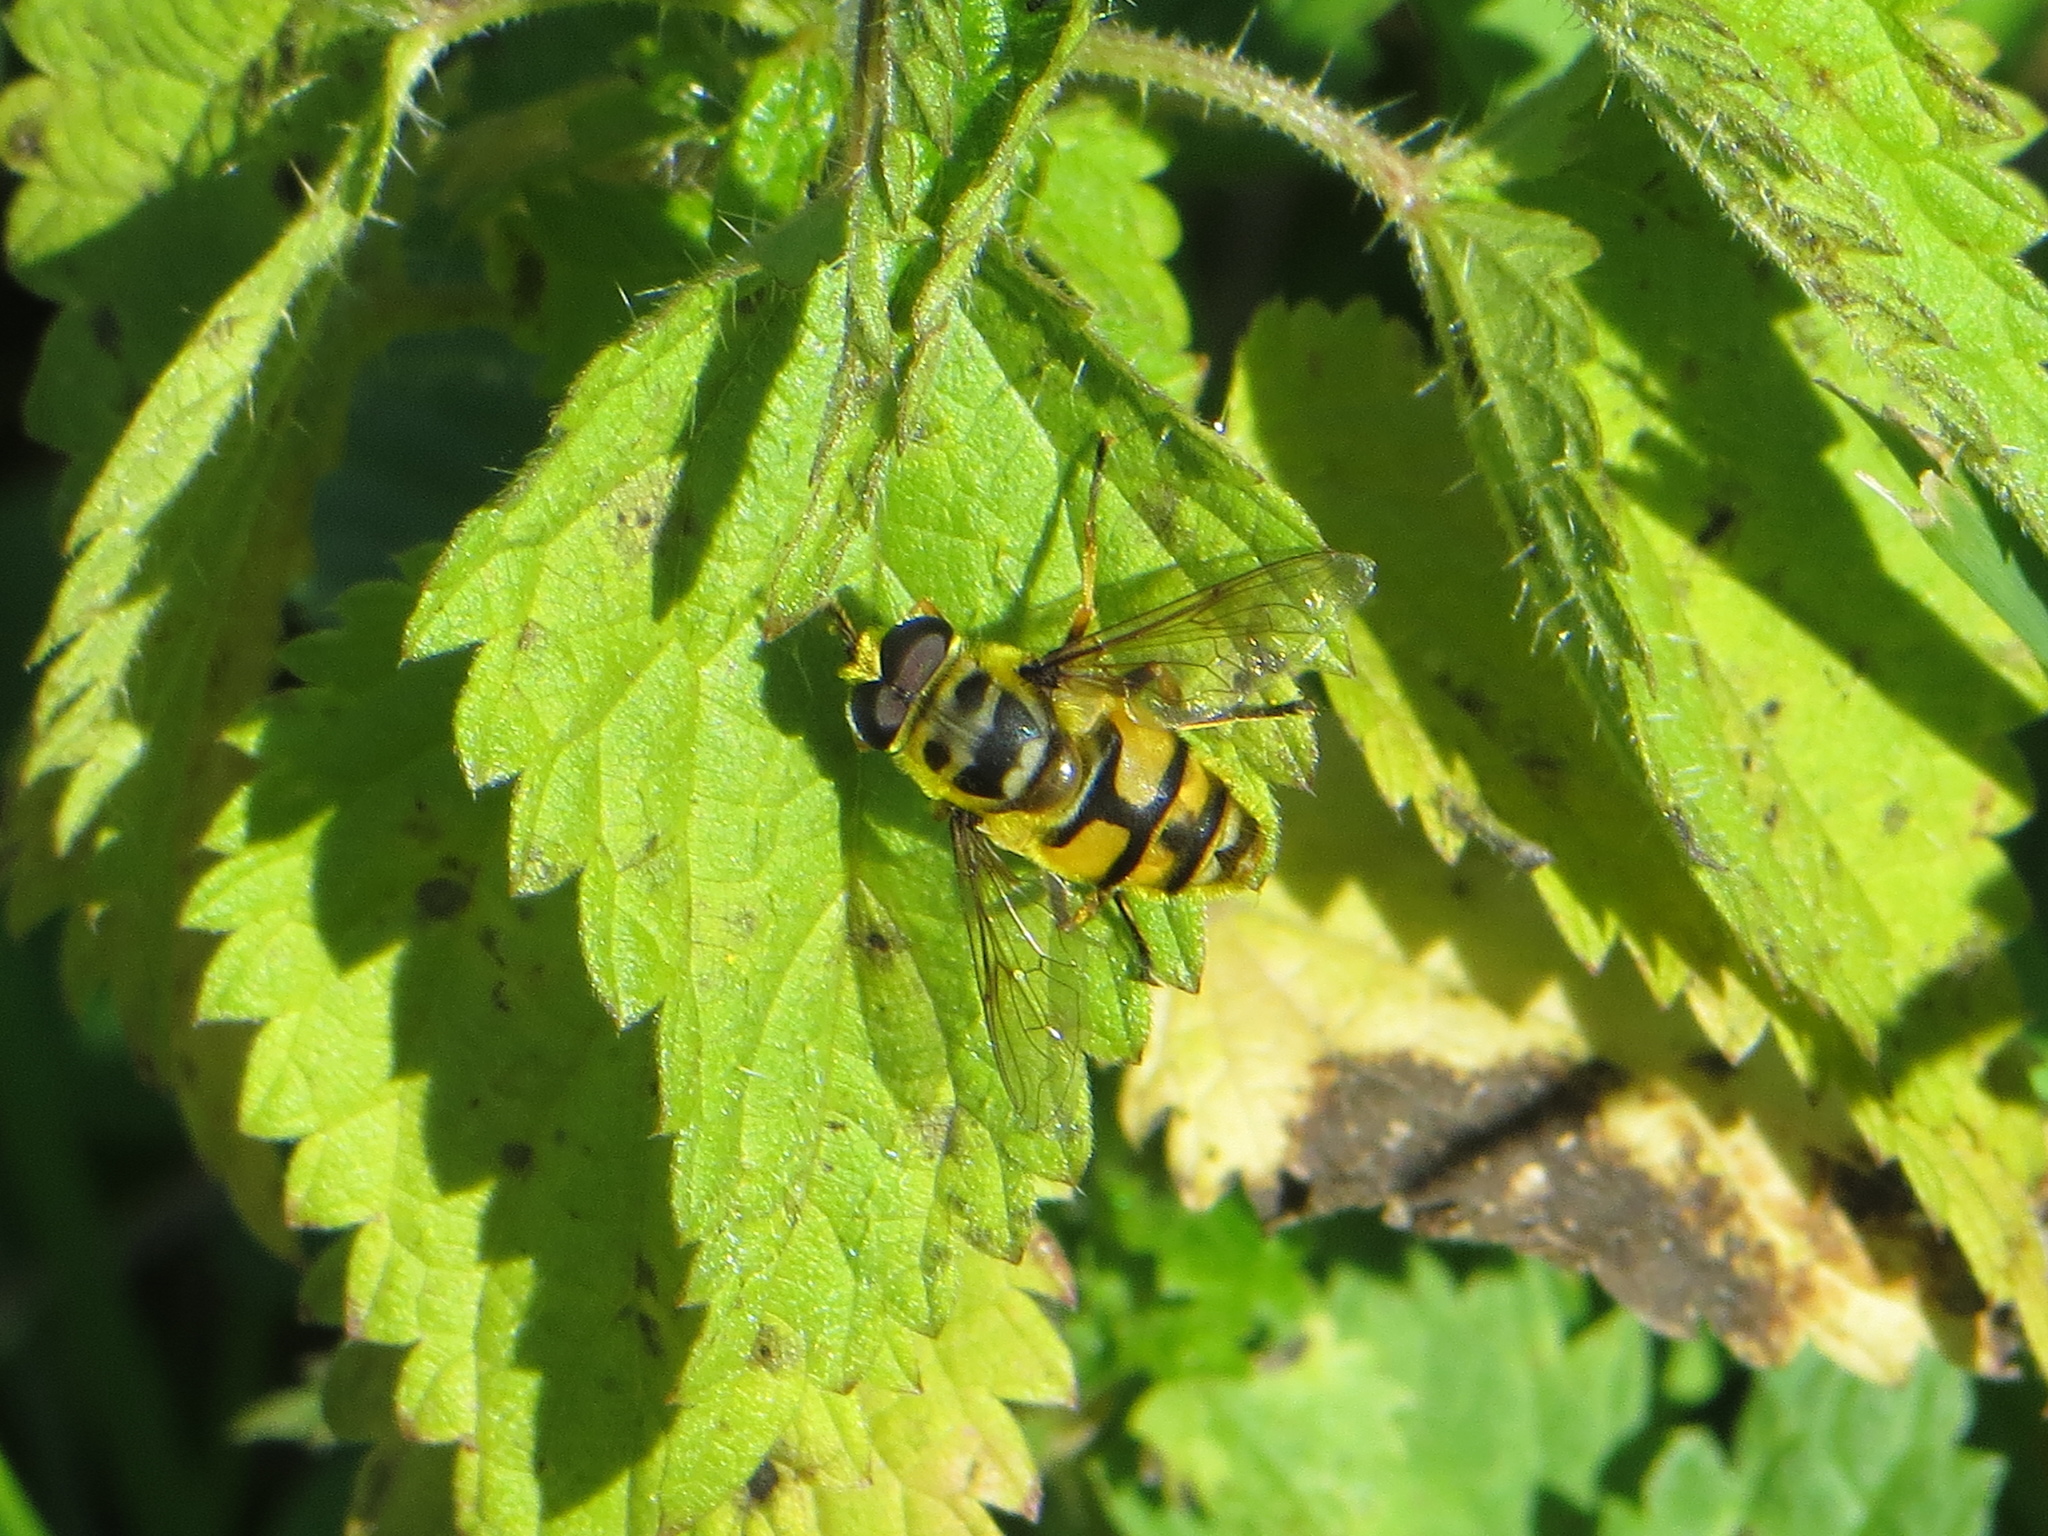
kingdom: Animalia
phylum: Arthropoda
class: Insecta
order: Diptera
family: Syrphidae
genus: Myathropa
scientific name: Myathropa florea
